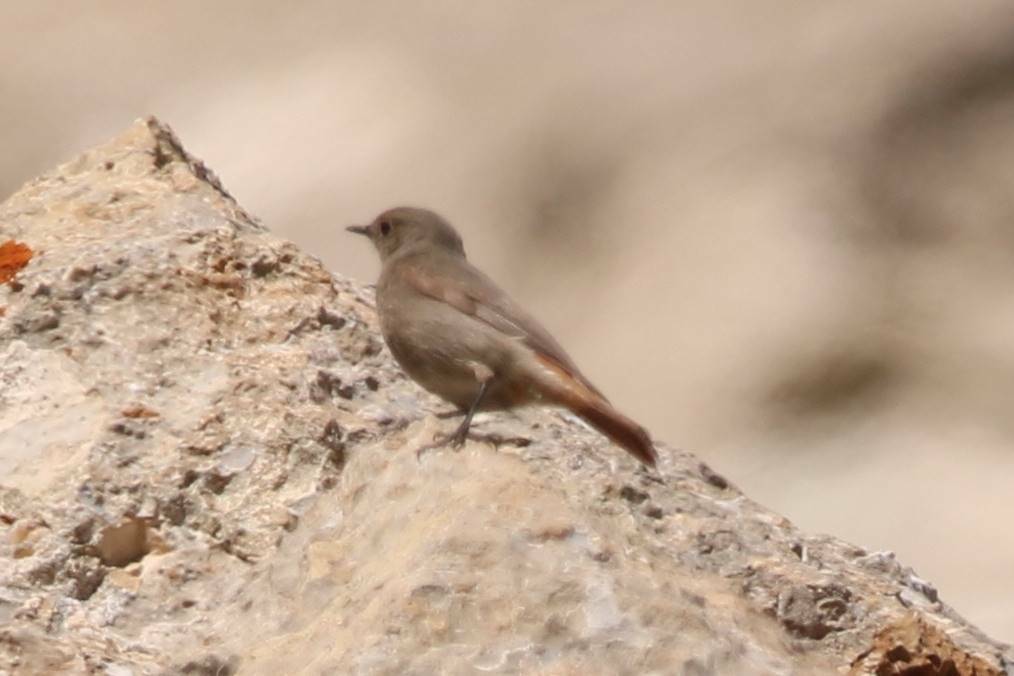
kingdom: Animalia
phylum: Chordata
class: Aves
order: Passeriformes
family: Muscicapidae
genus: Phoenicurus
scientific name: Phoenicurus ochruros
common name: Black redstart
